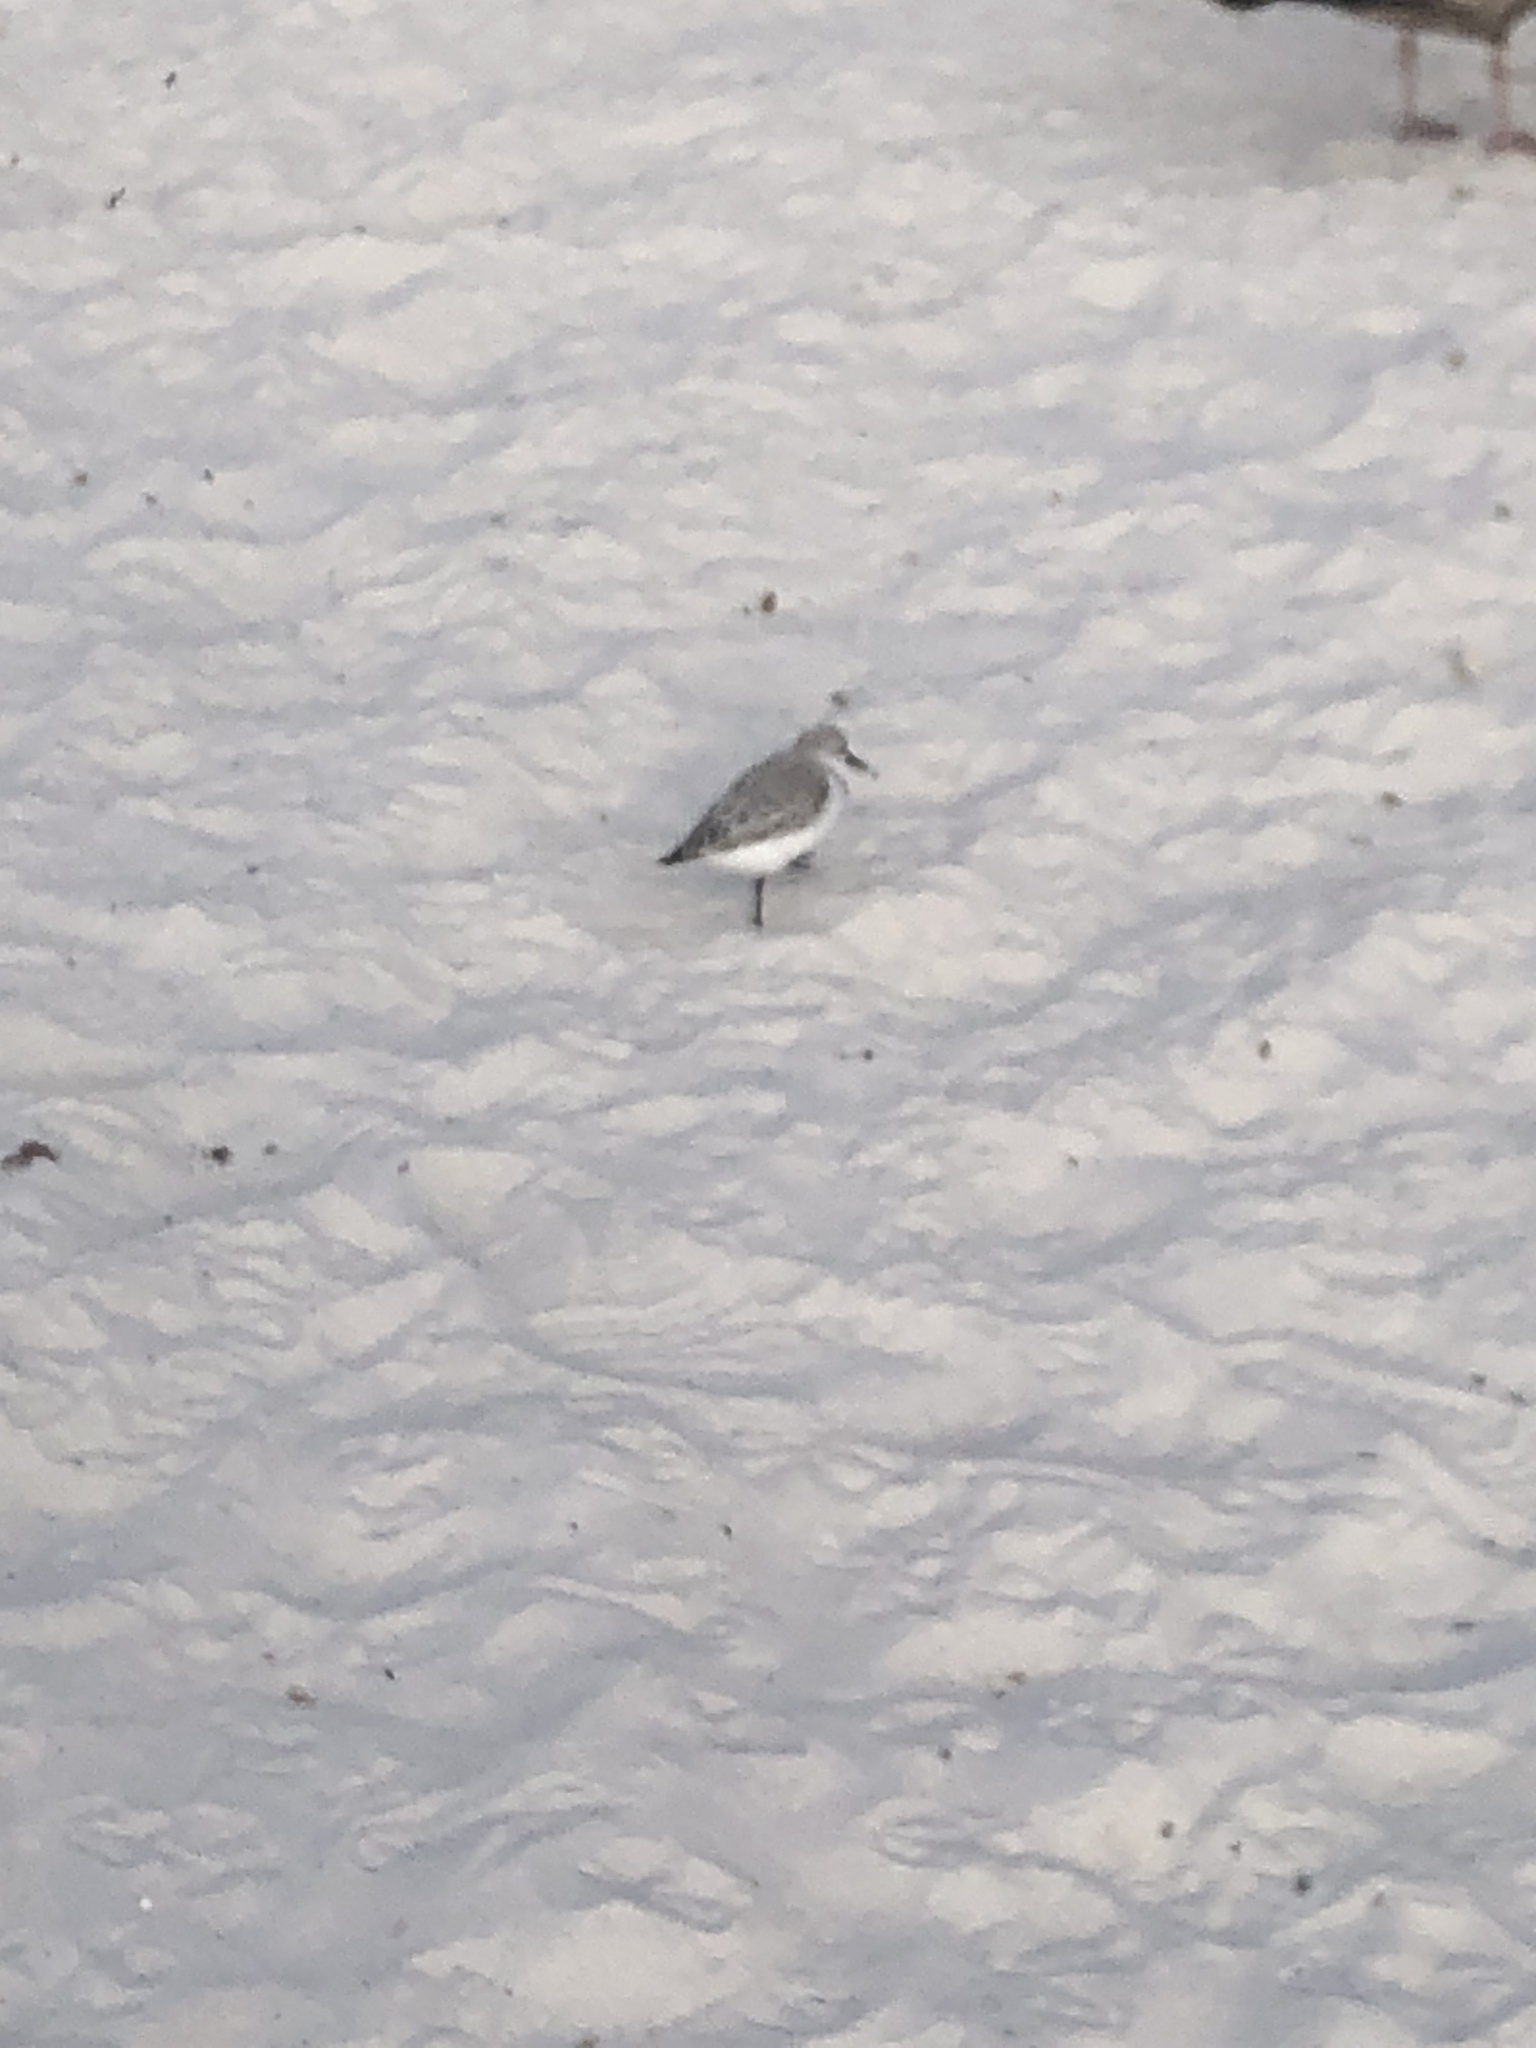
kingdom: Animalia
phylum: Chordata
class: Aves
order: Charadriiformes
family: Scolopacidae
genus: Calidris
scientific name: Calidris alba
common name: Sanderling
